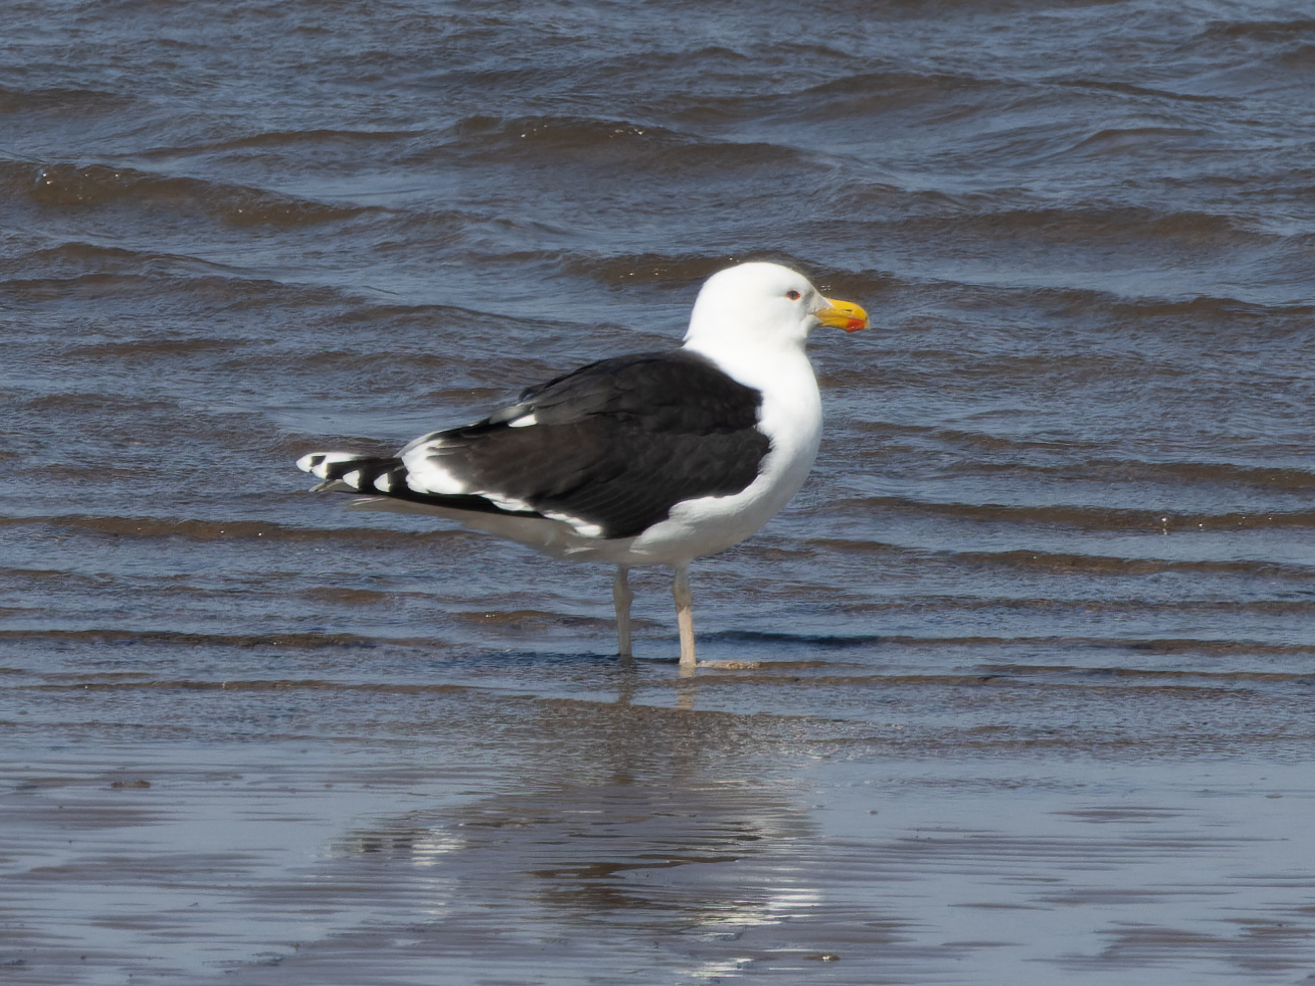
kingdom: Animalia
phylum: Chordata
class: Aves
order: Charadriiformes
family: Laridae
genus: Larus
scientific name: Larus marinus
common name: Great black-backed gull
